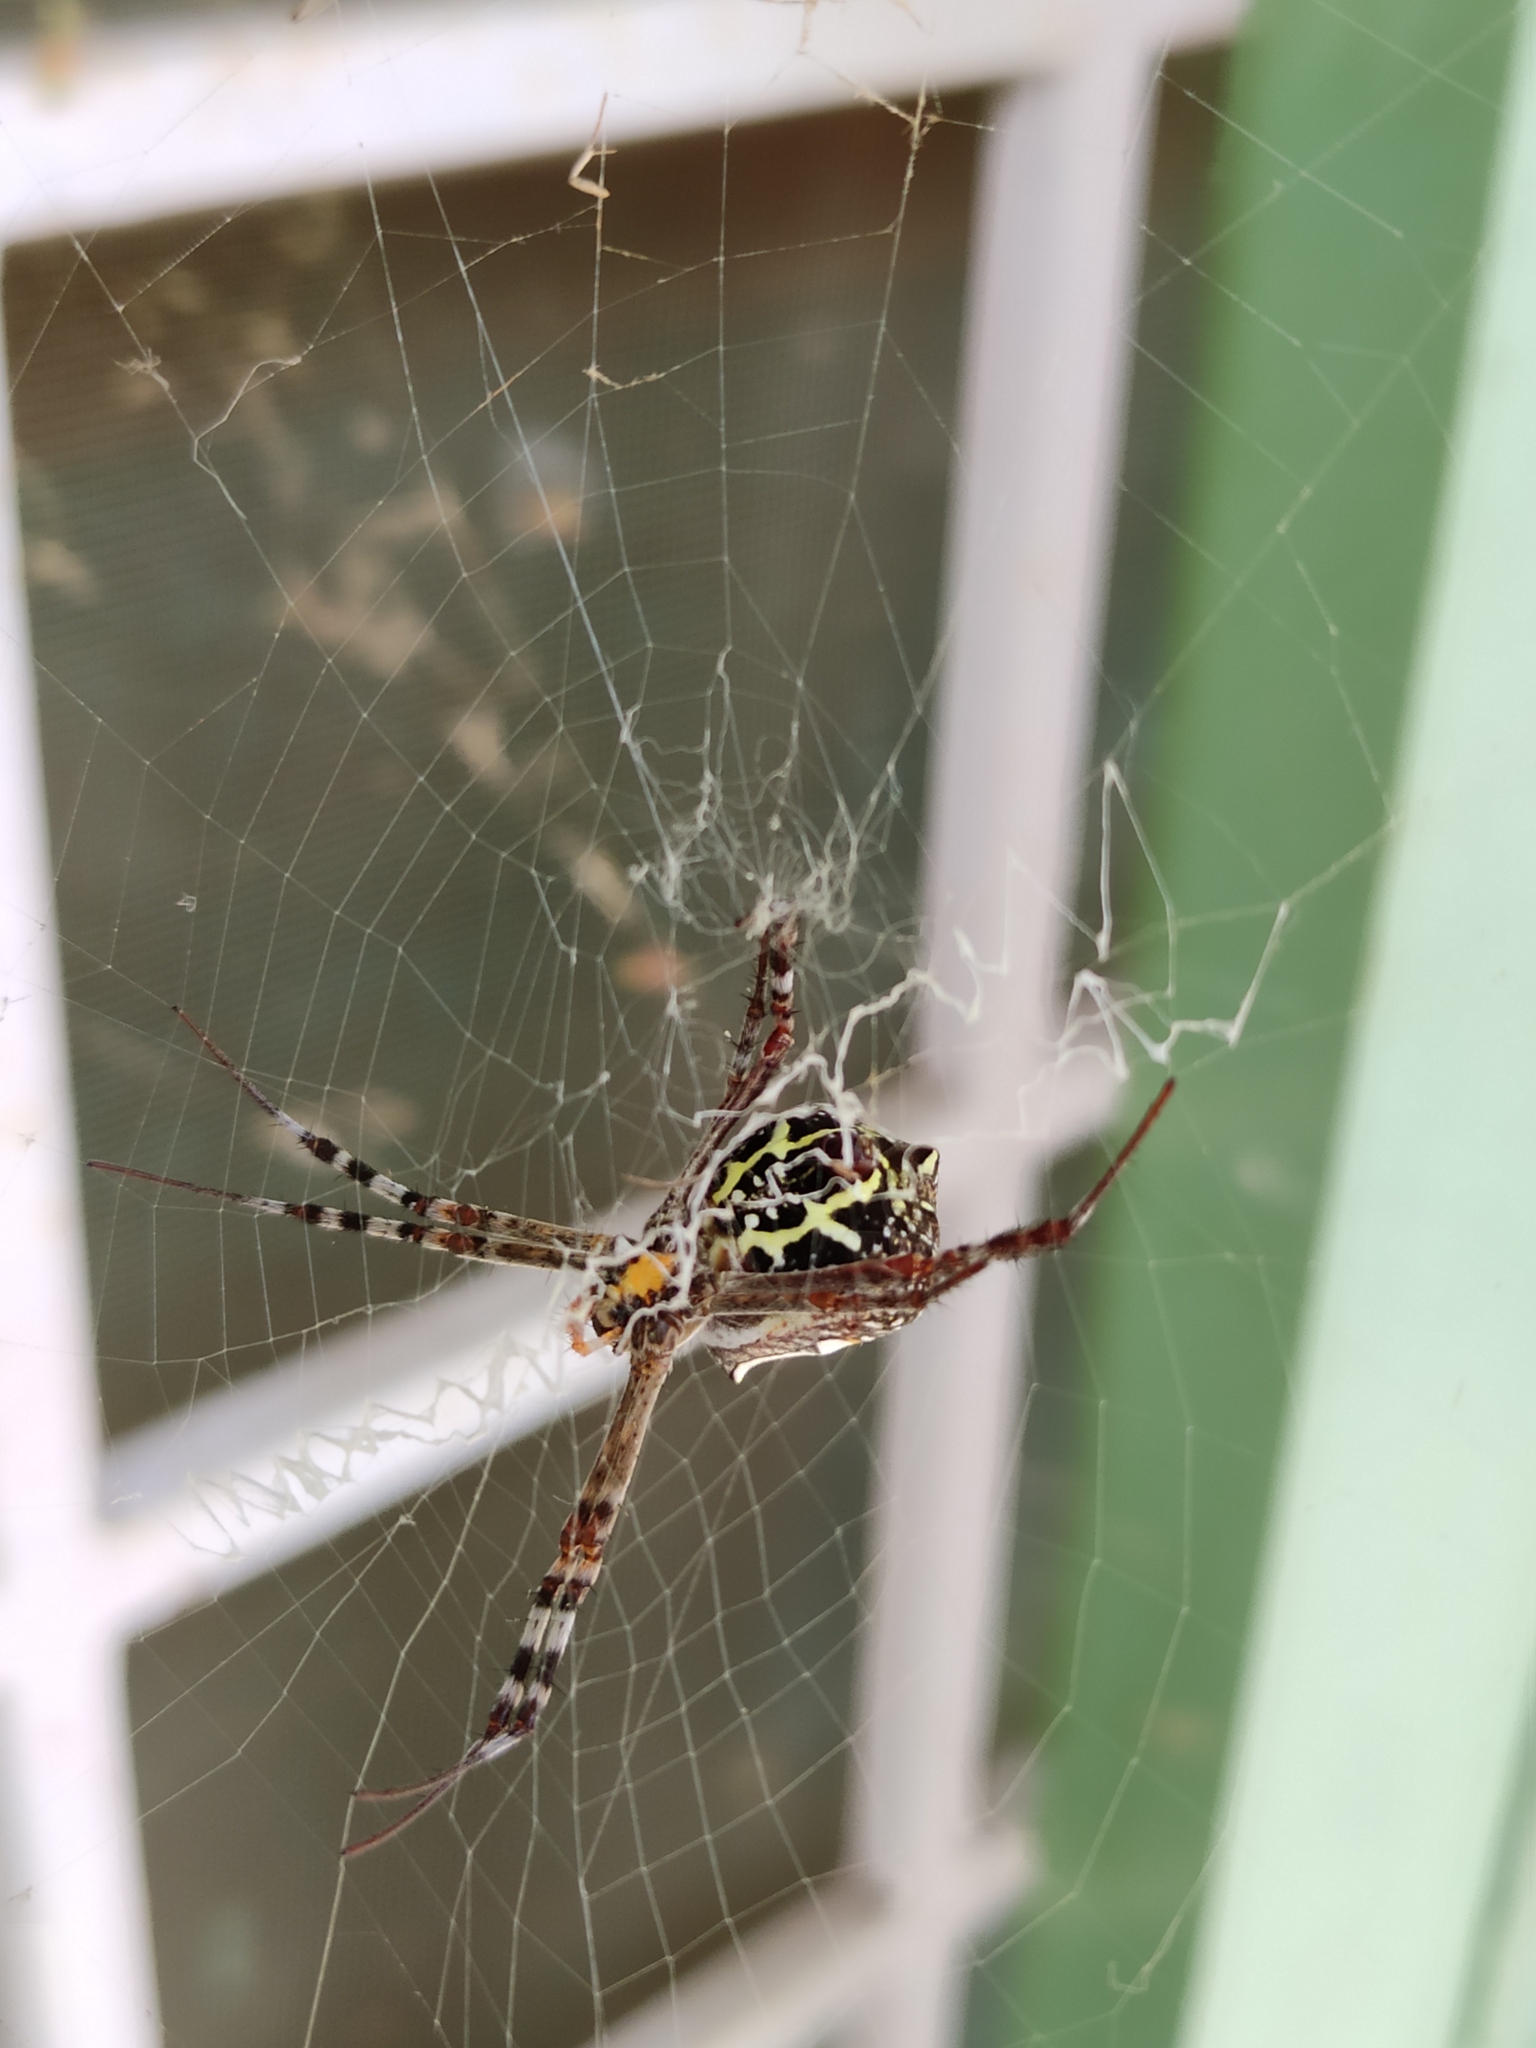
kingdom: Animalia
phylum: Arthropoda
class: Arachnida
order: Araneae
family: Araneidae
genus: Argiope
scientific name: Argiope anasuja
